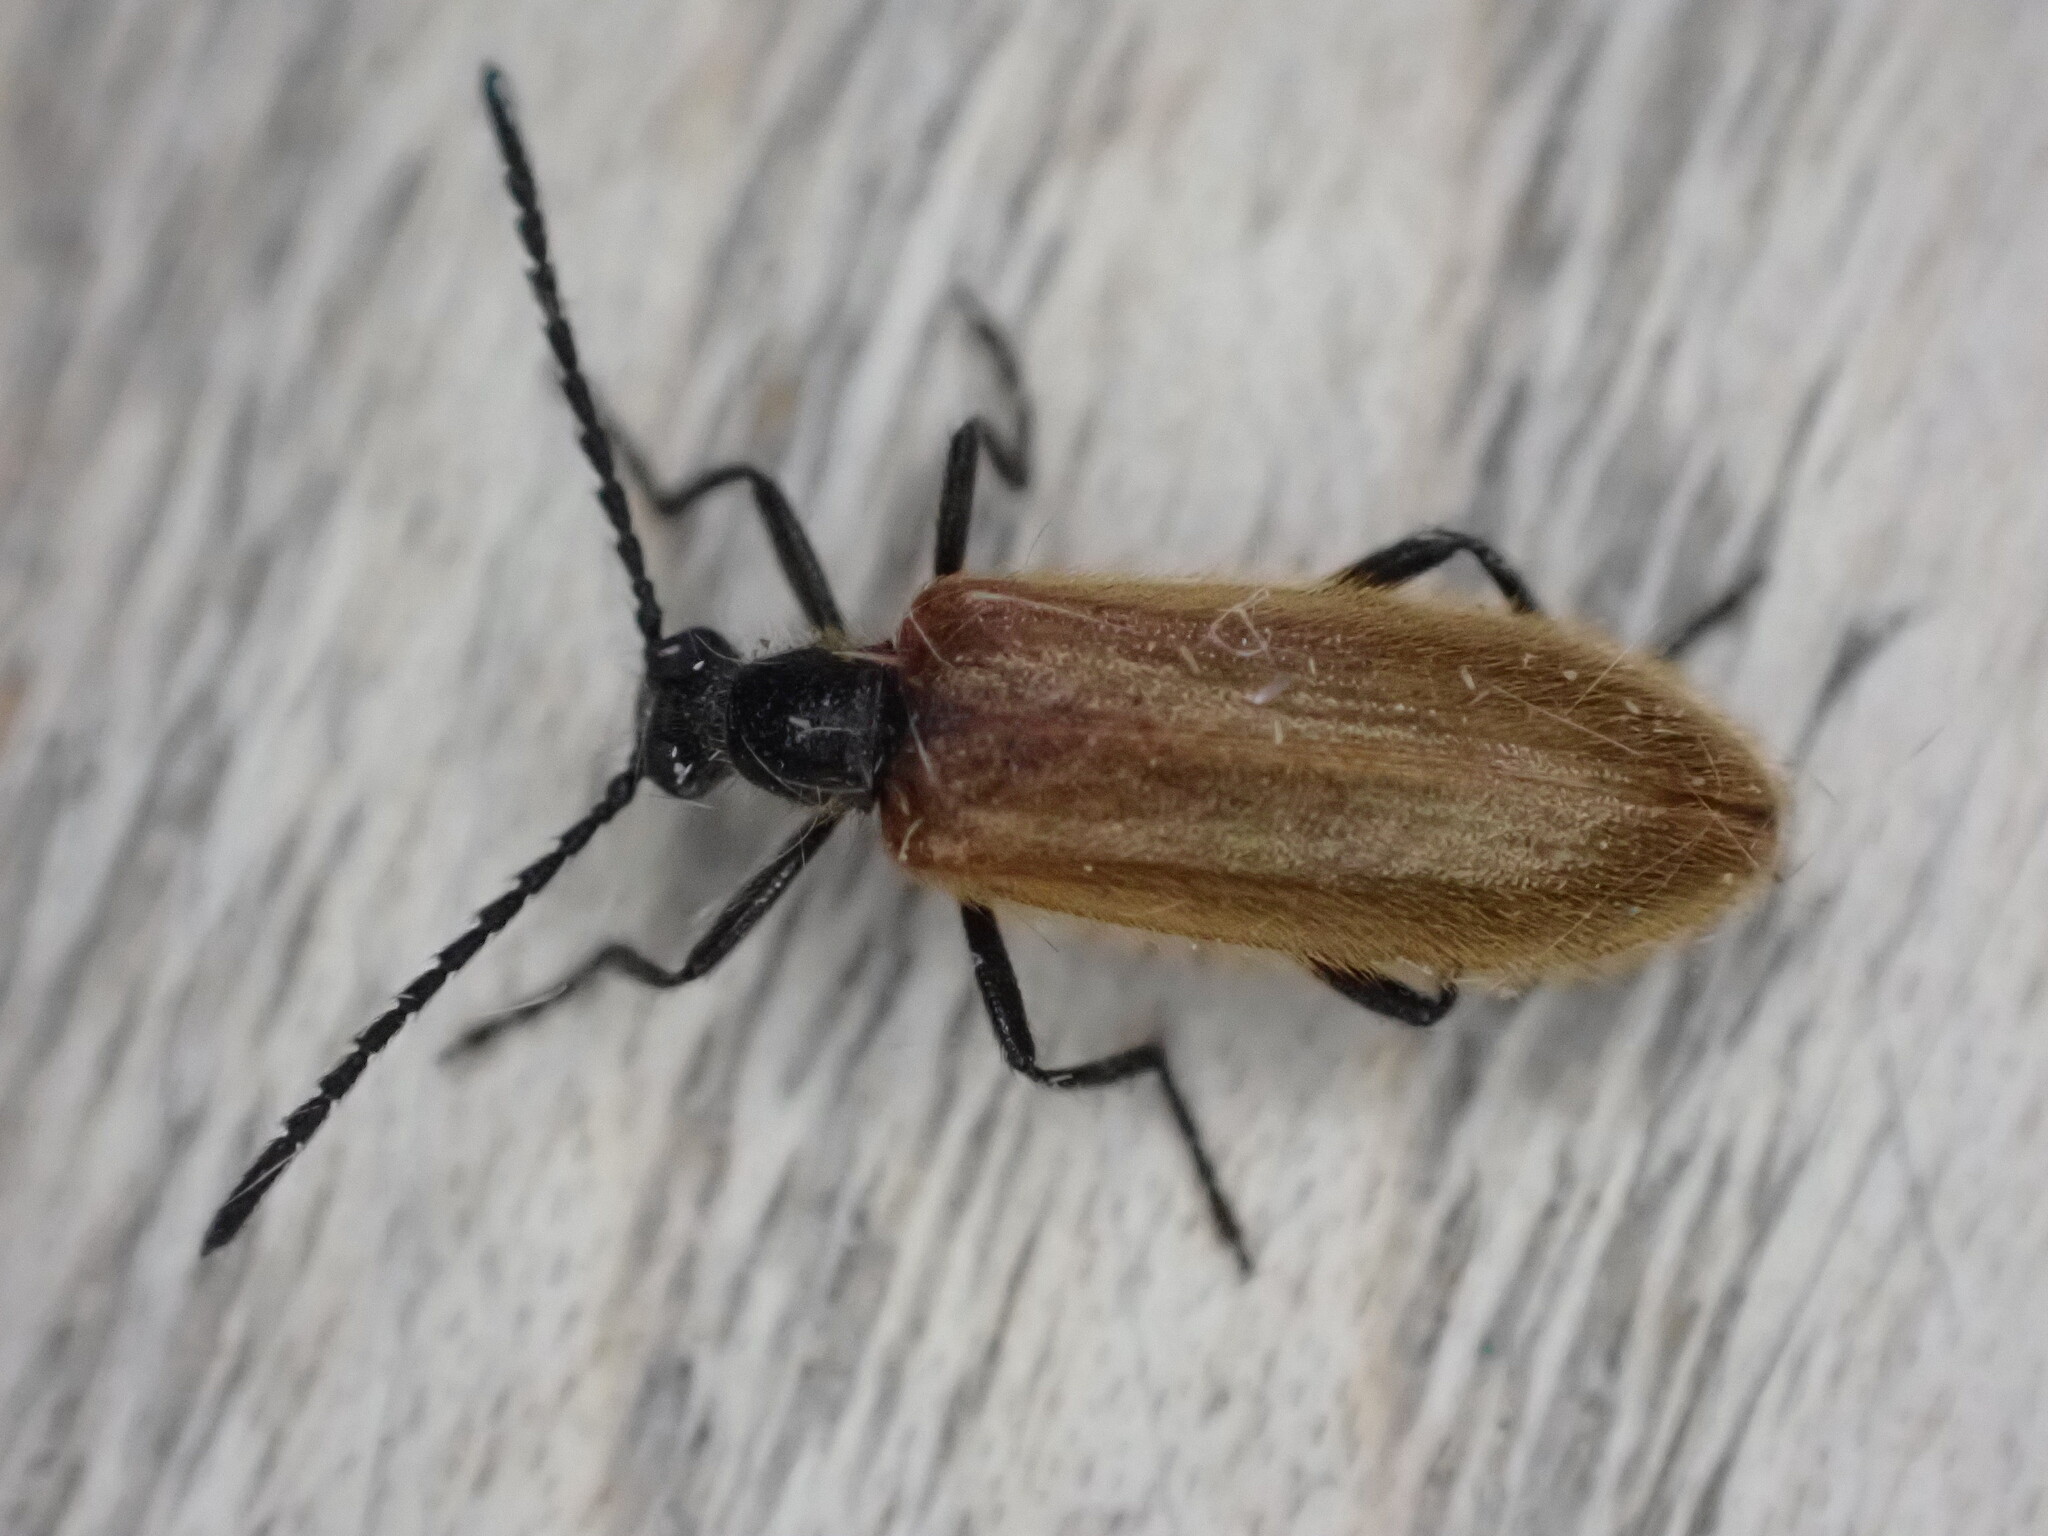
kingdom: Animalia
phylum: Arthropoda
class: Insecta
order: Coleoptera
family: Tenebrionidae
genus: Lagria
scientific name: Lagria hirta
